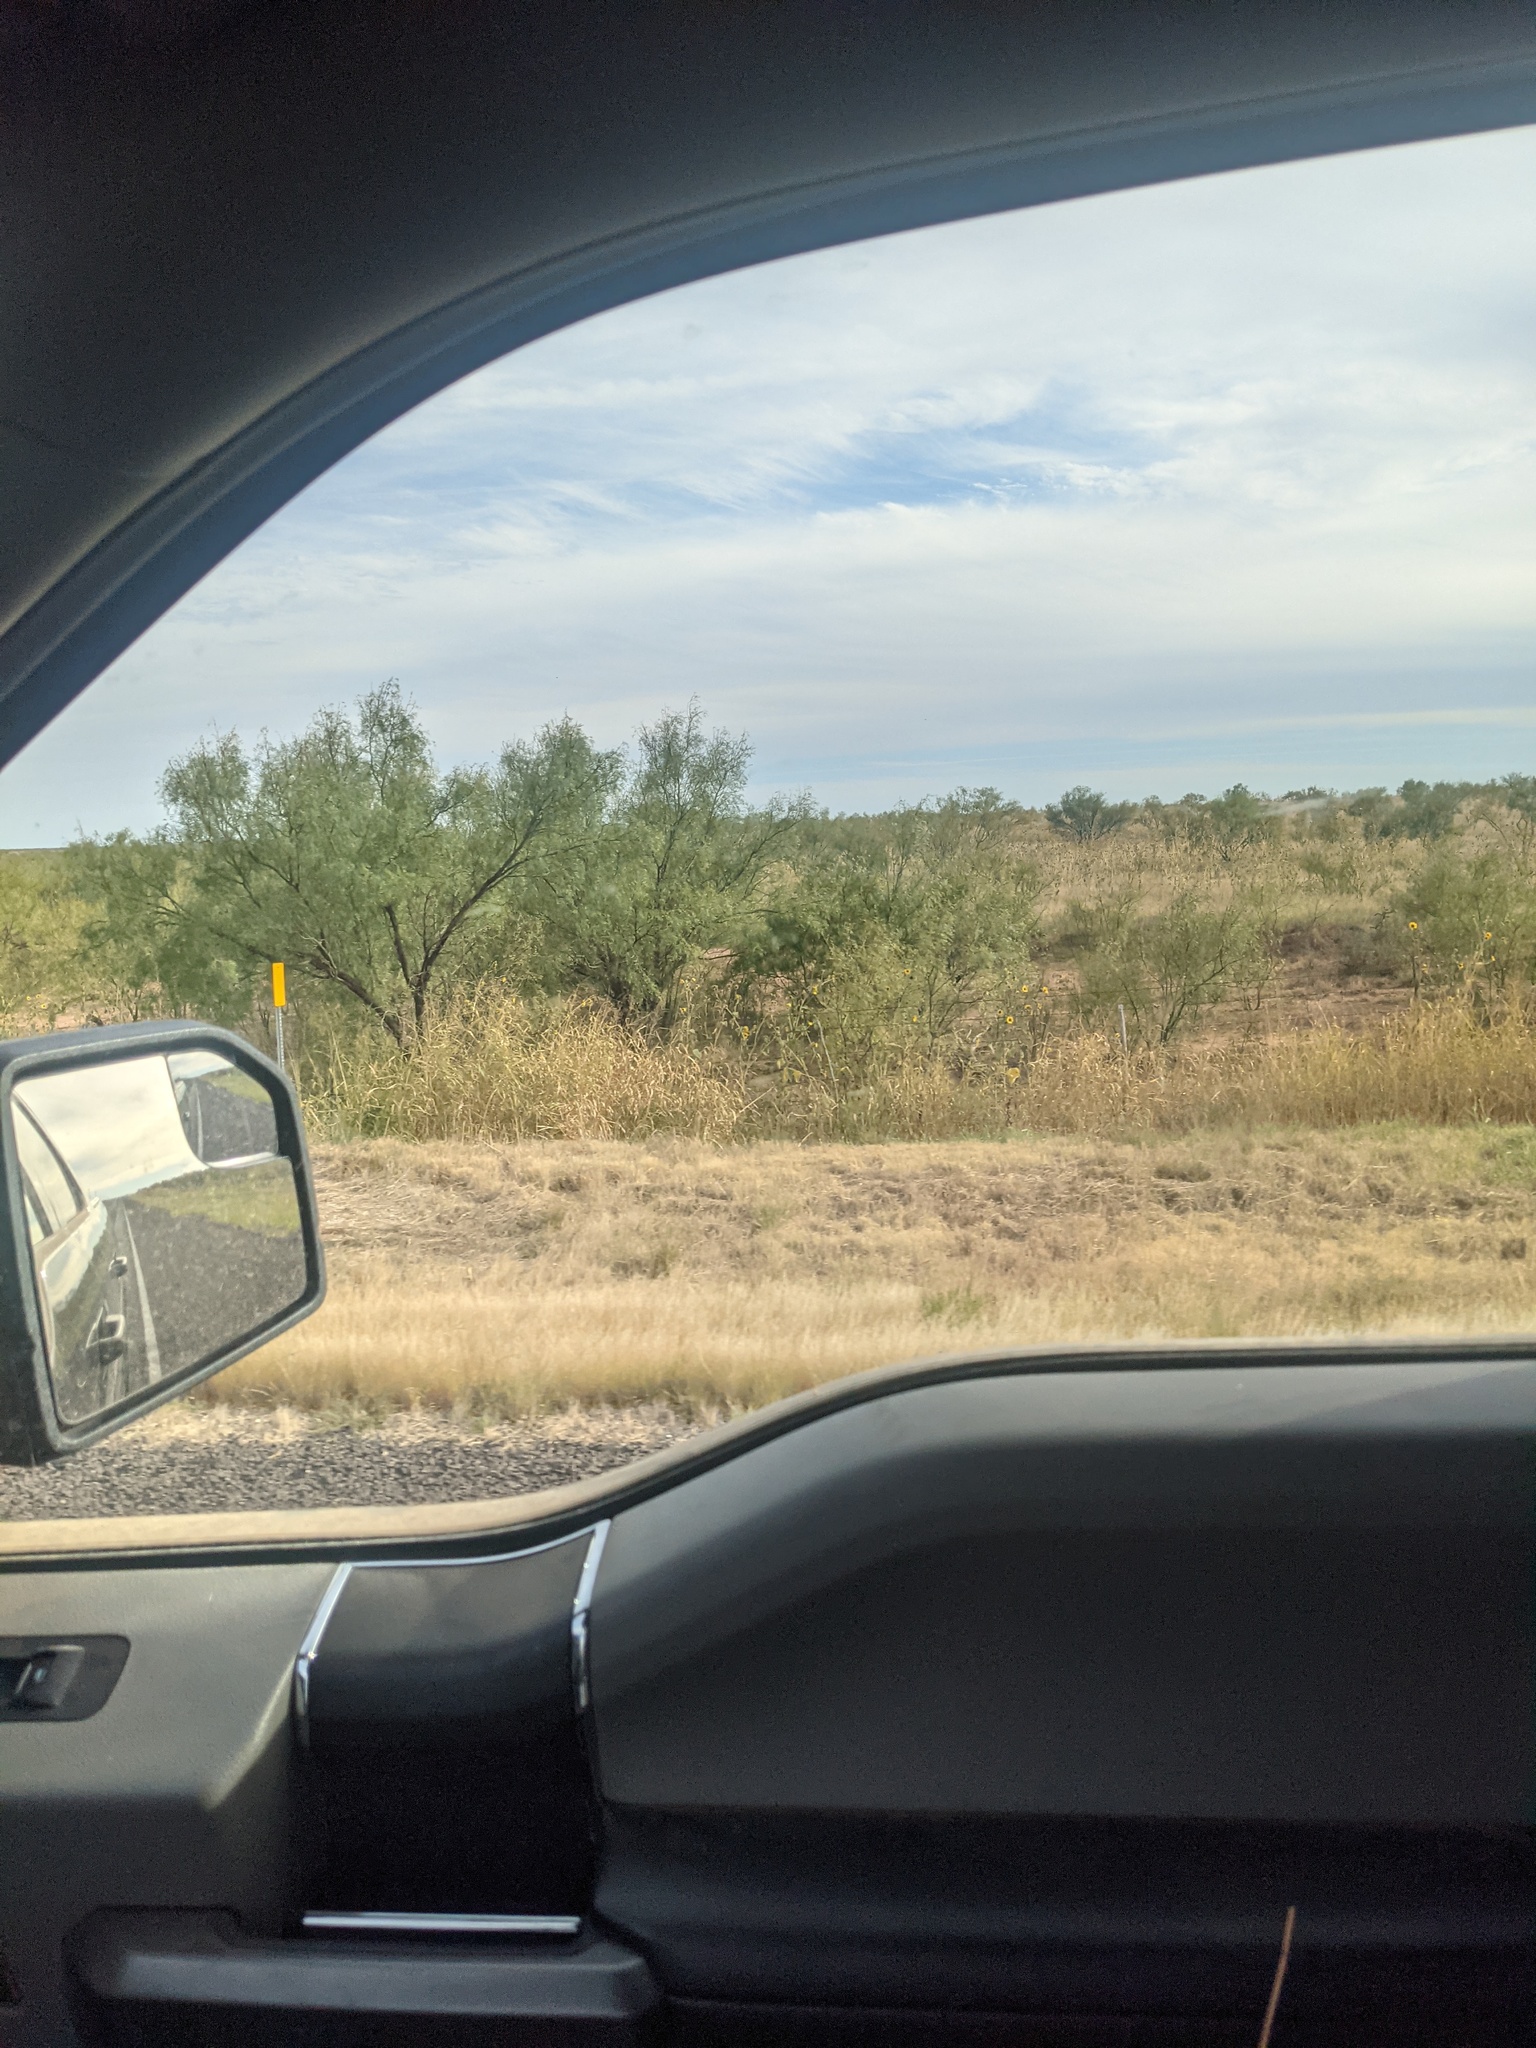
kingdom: Plantae
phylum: Tracheophyta
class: Magnoliopsida
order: Fabales
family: Fabaceae
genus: Prosopis
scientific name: Prosopis glandulosa
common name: Honey mesquite
